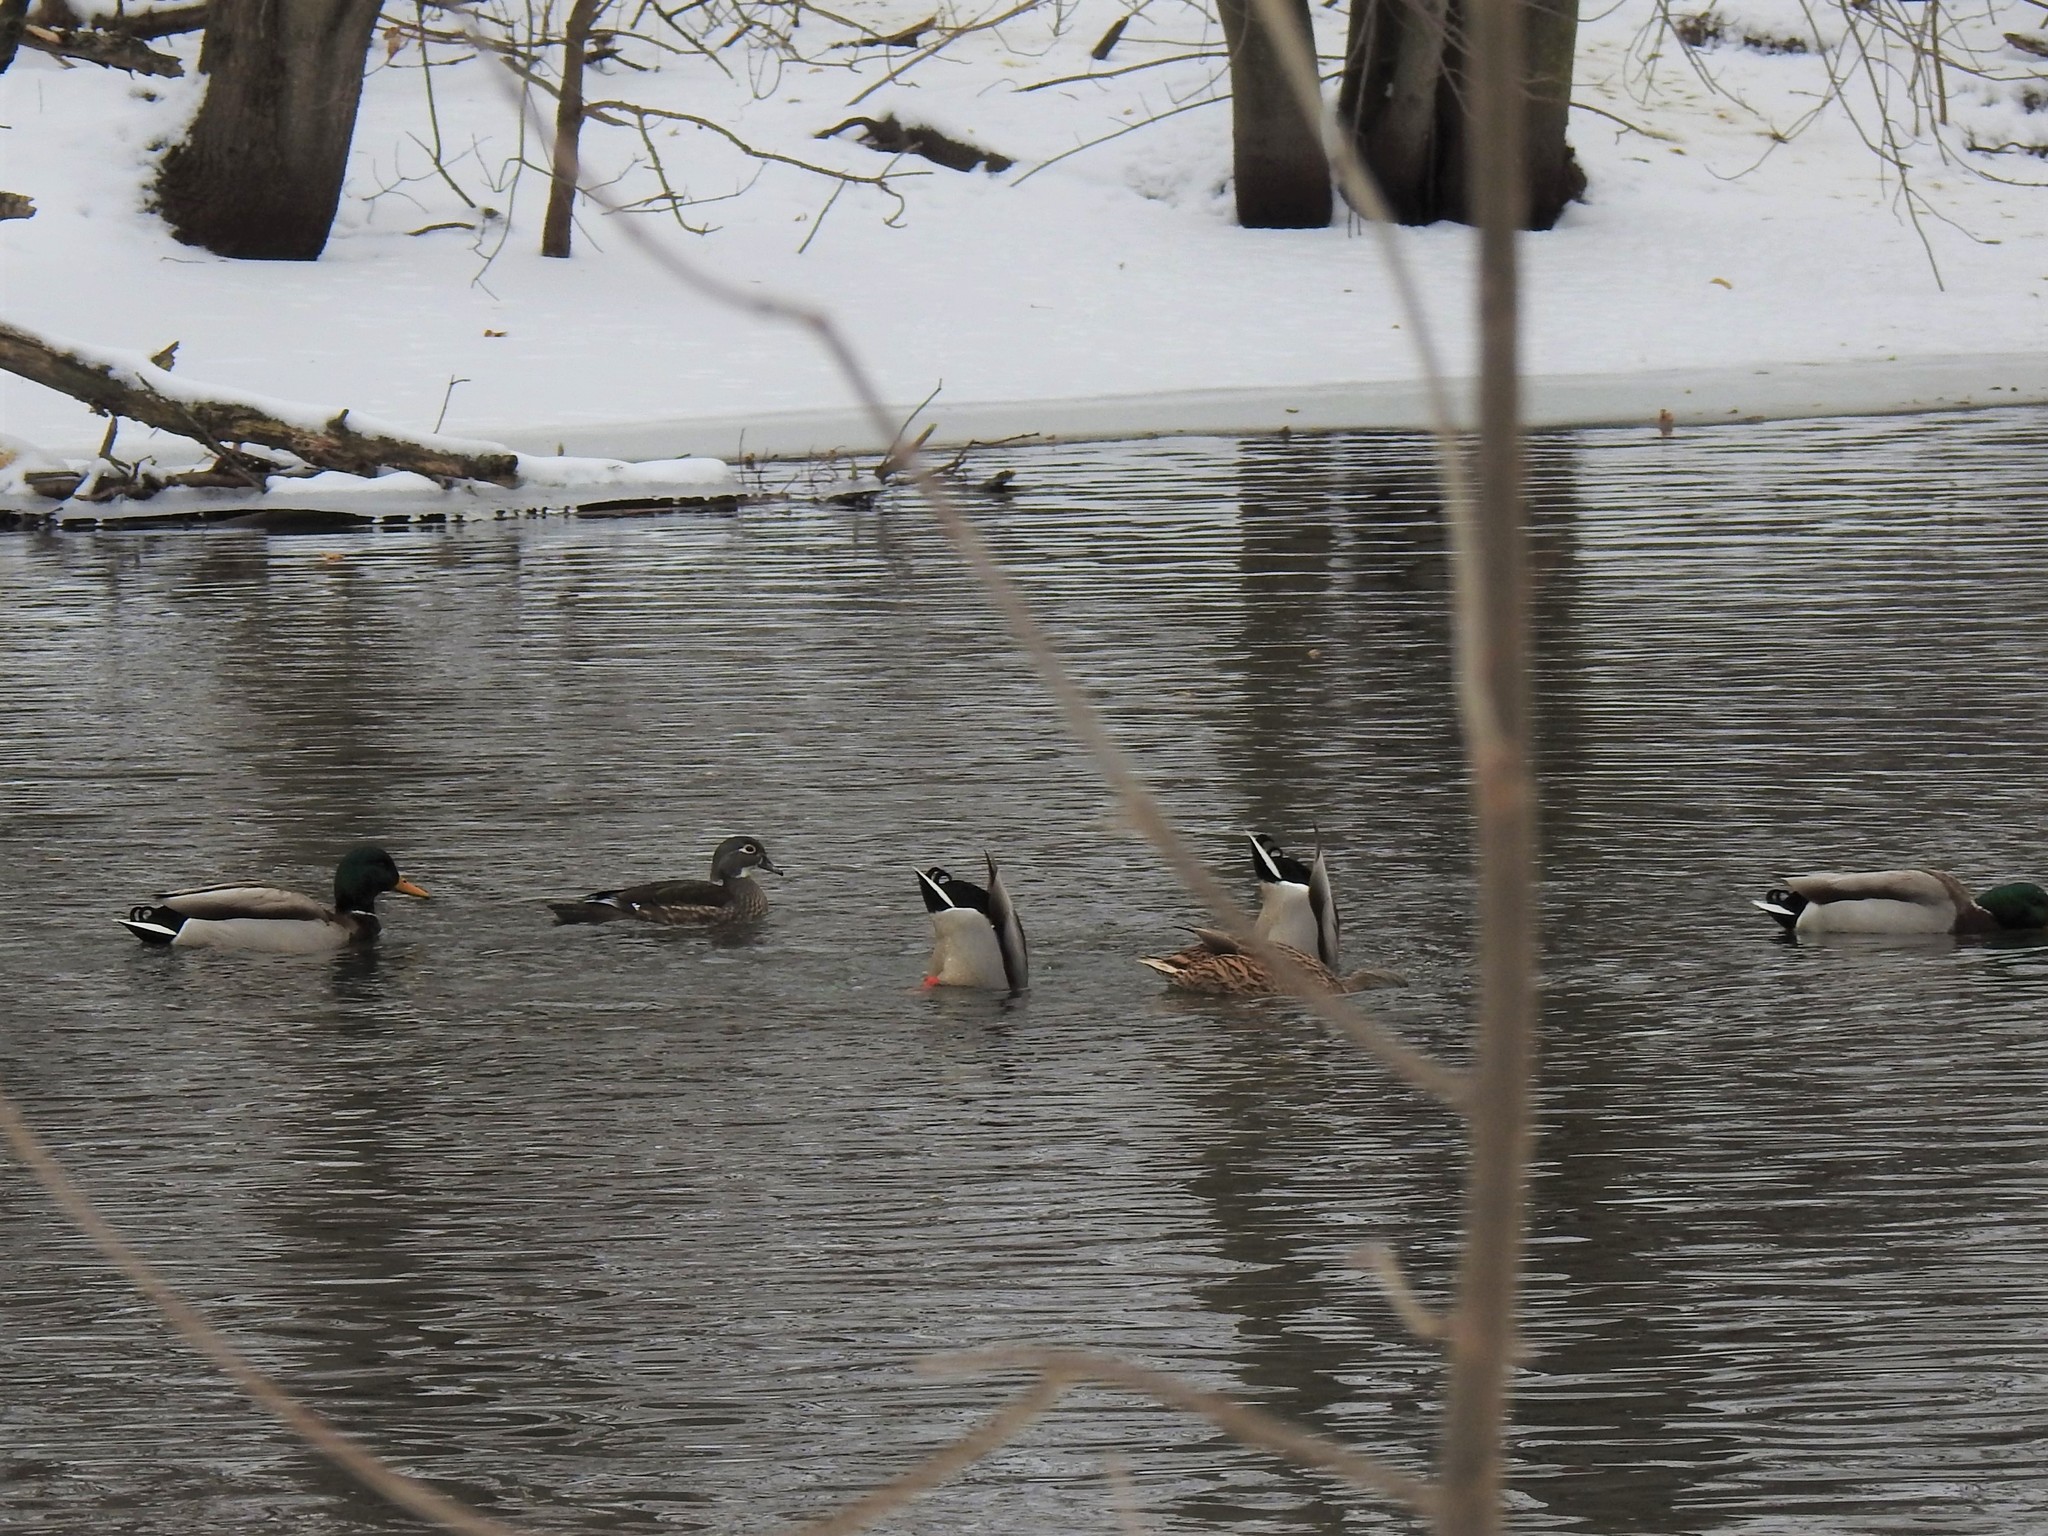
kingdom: Animalia
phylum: Chordata
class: Aves
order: Anseriformes
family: Anatidae
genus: Aix
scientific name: Aix sponsa
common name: Wood duck
